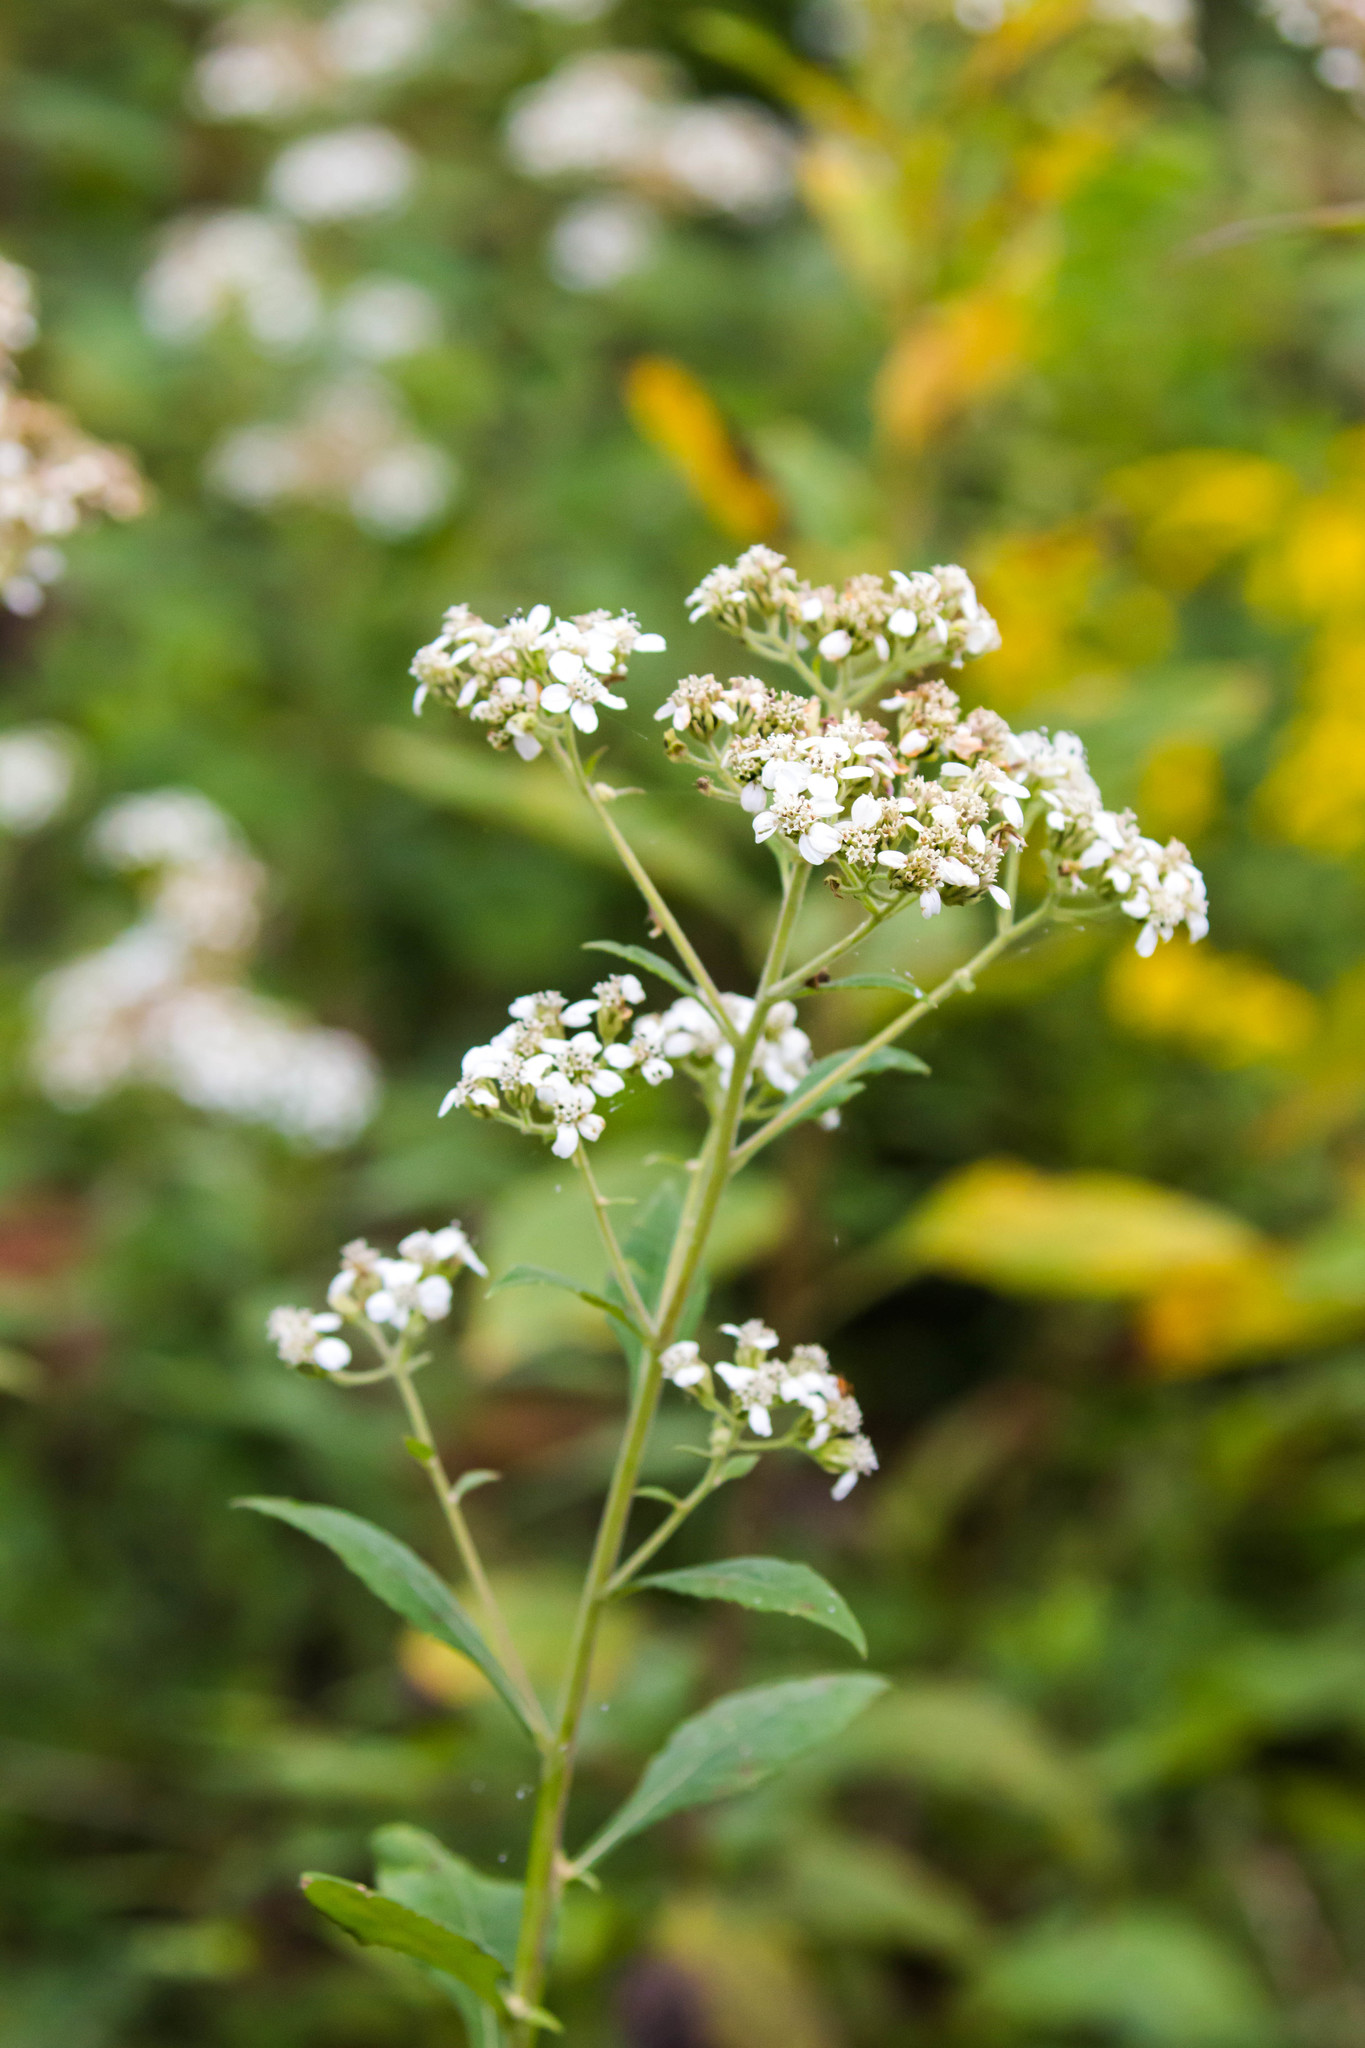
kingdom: Plantae
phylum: Tracheophyta
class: Magnoliopsida
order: Asterales
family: Asteraceae
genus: Verbesina
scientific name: Verbesina virginica
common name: Frostweed
